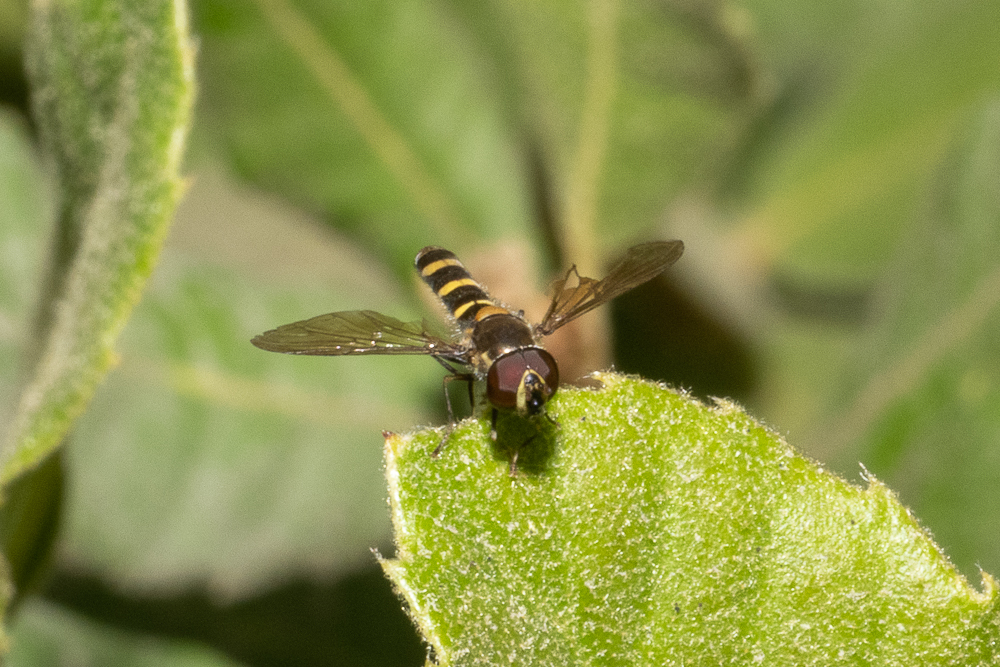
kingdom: Animalia
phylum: Arthropoda
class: Insecta
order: Diptera
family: Syrphidae
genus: Fazia
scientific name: Fazia micrura
